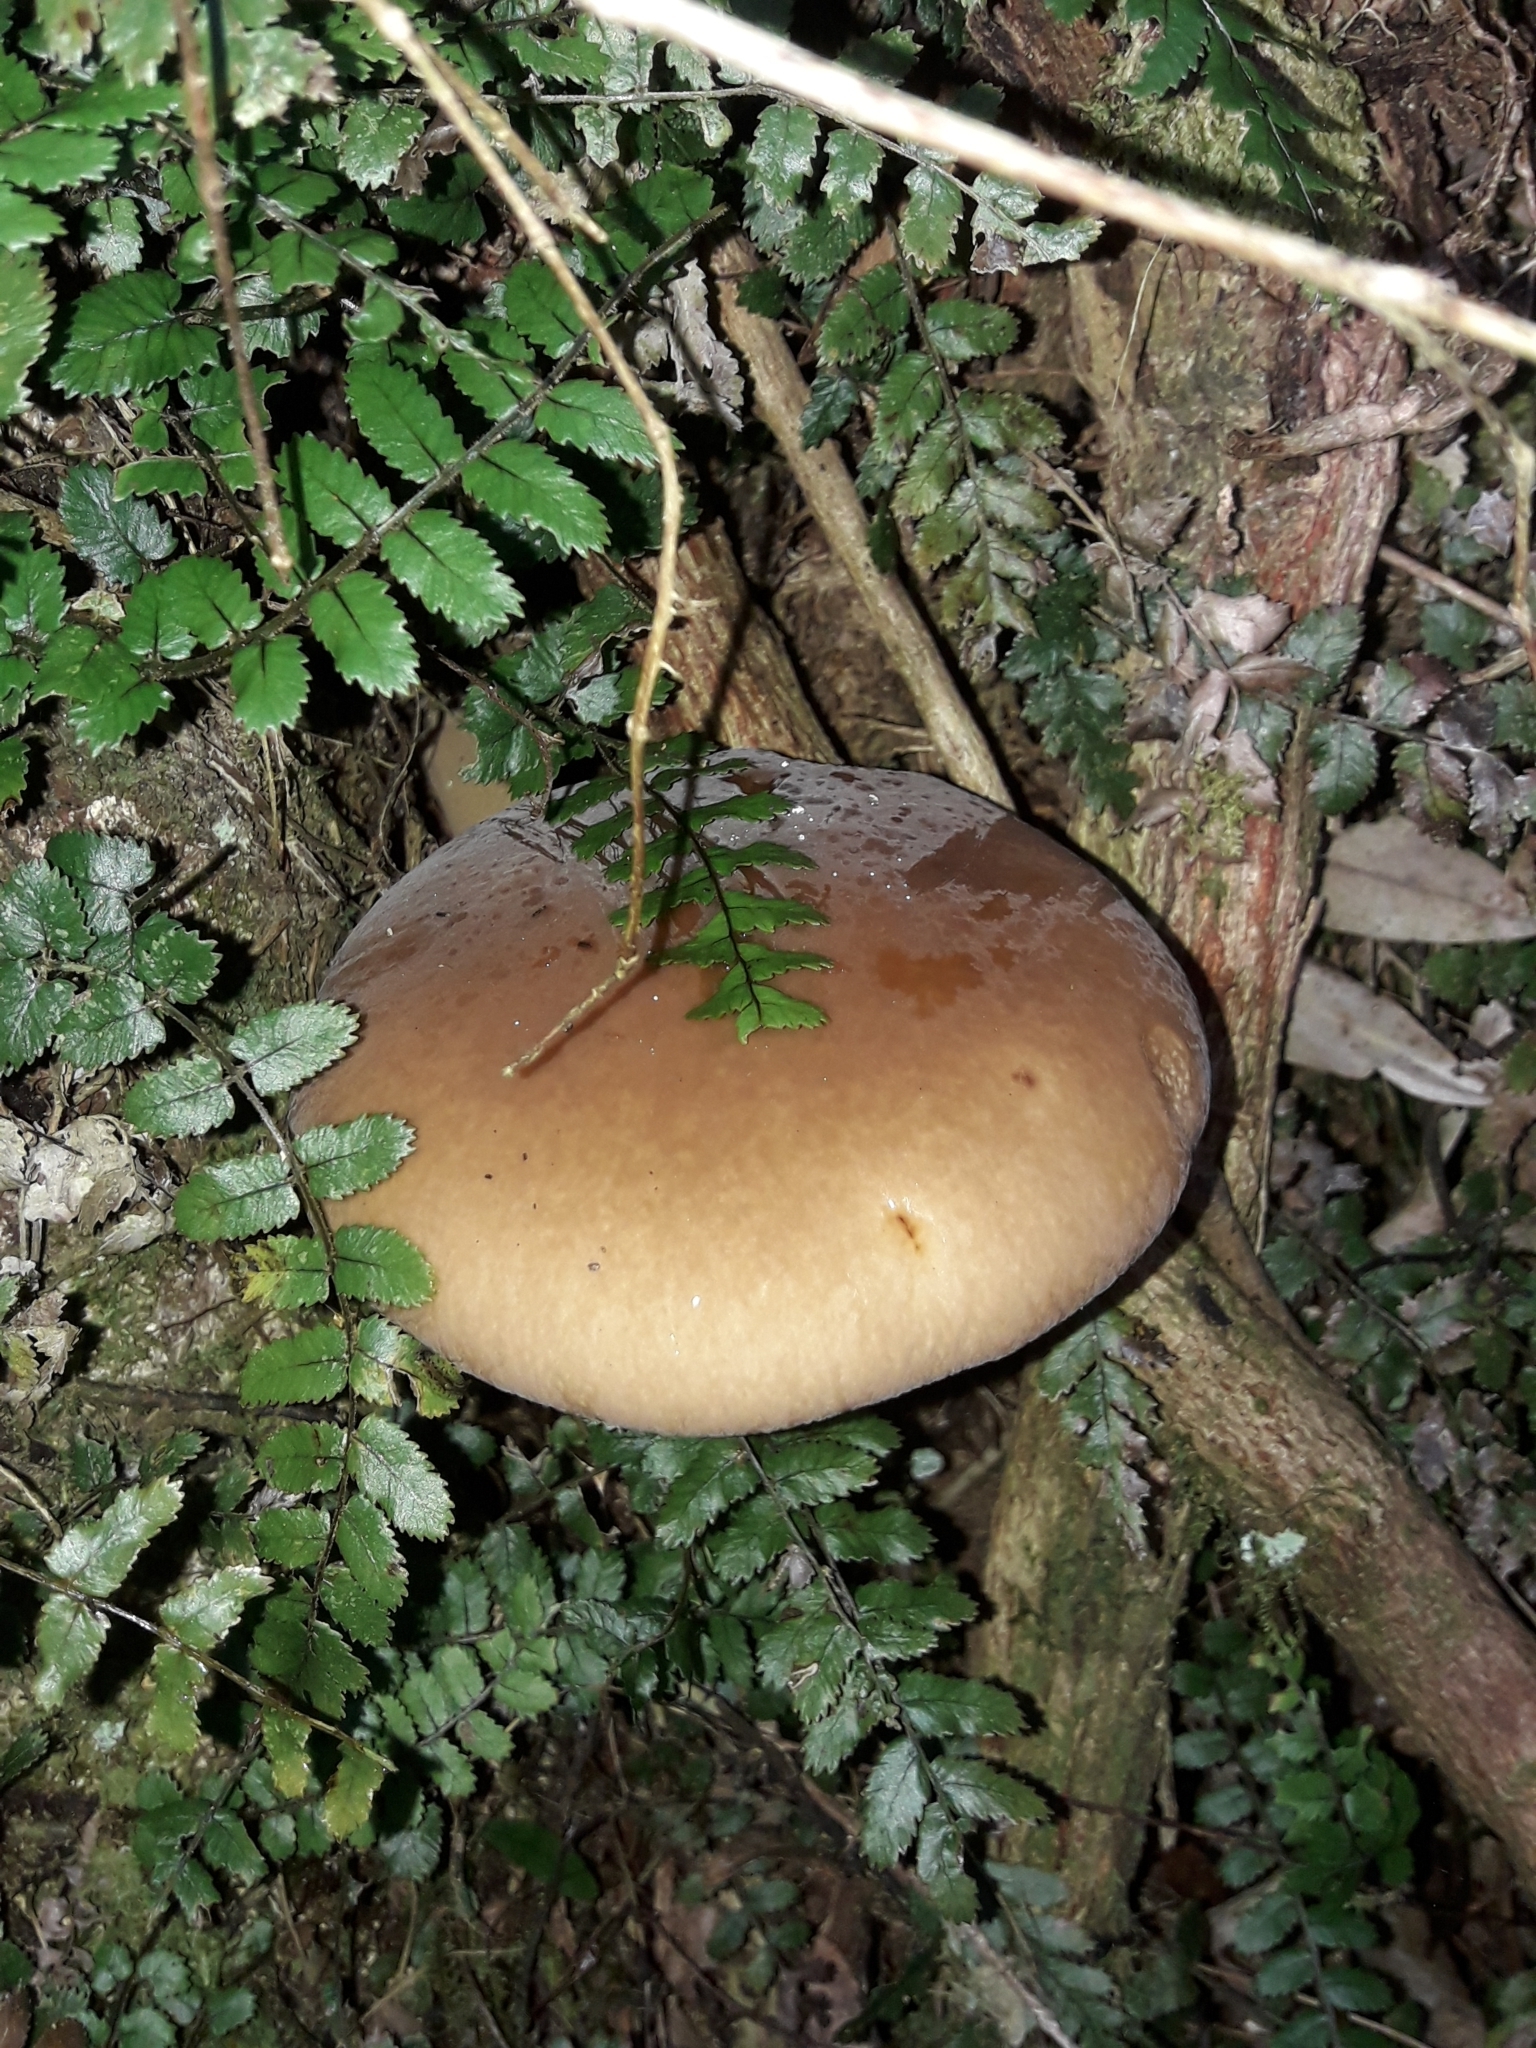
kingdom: Fungi
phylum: Basidiomycota
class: Agaricomycetes
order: Agaricales
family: Tubariaceae
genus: Cyclocybe
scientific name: Cyclocybe parasitica
